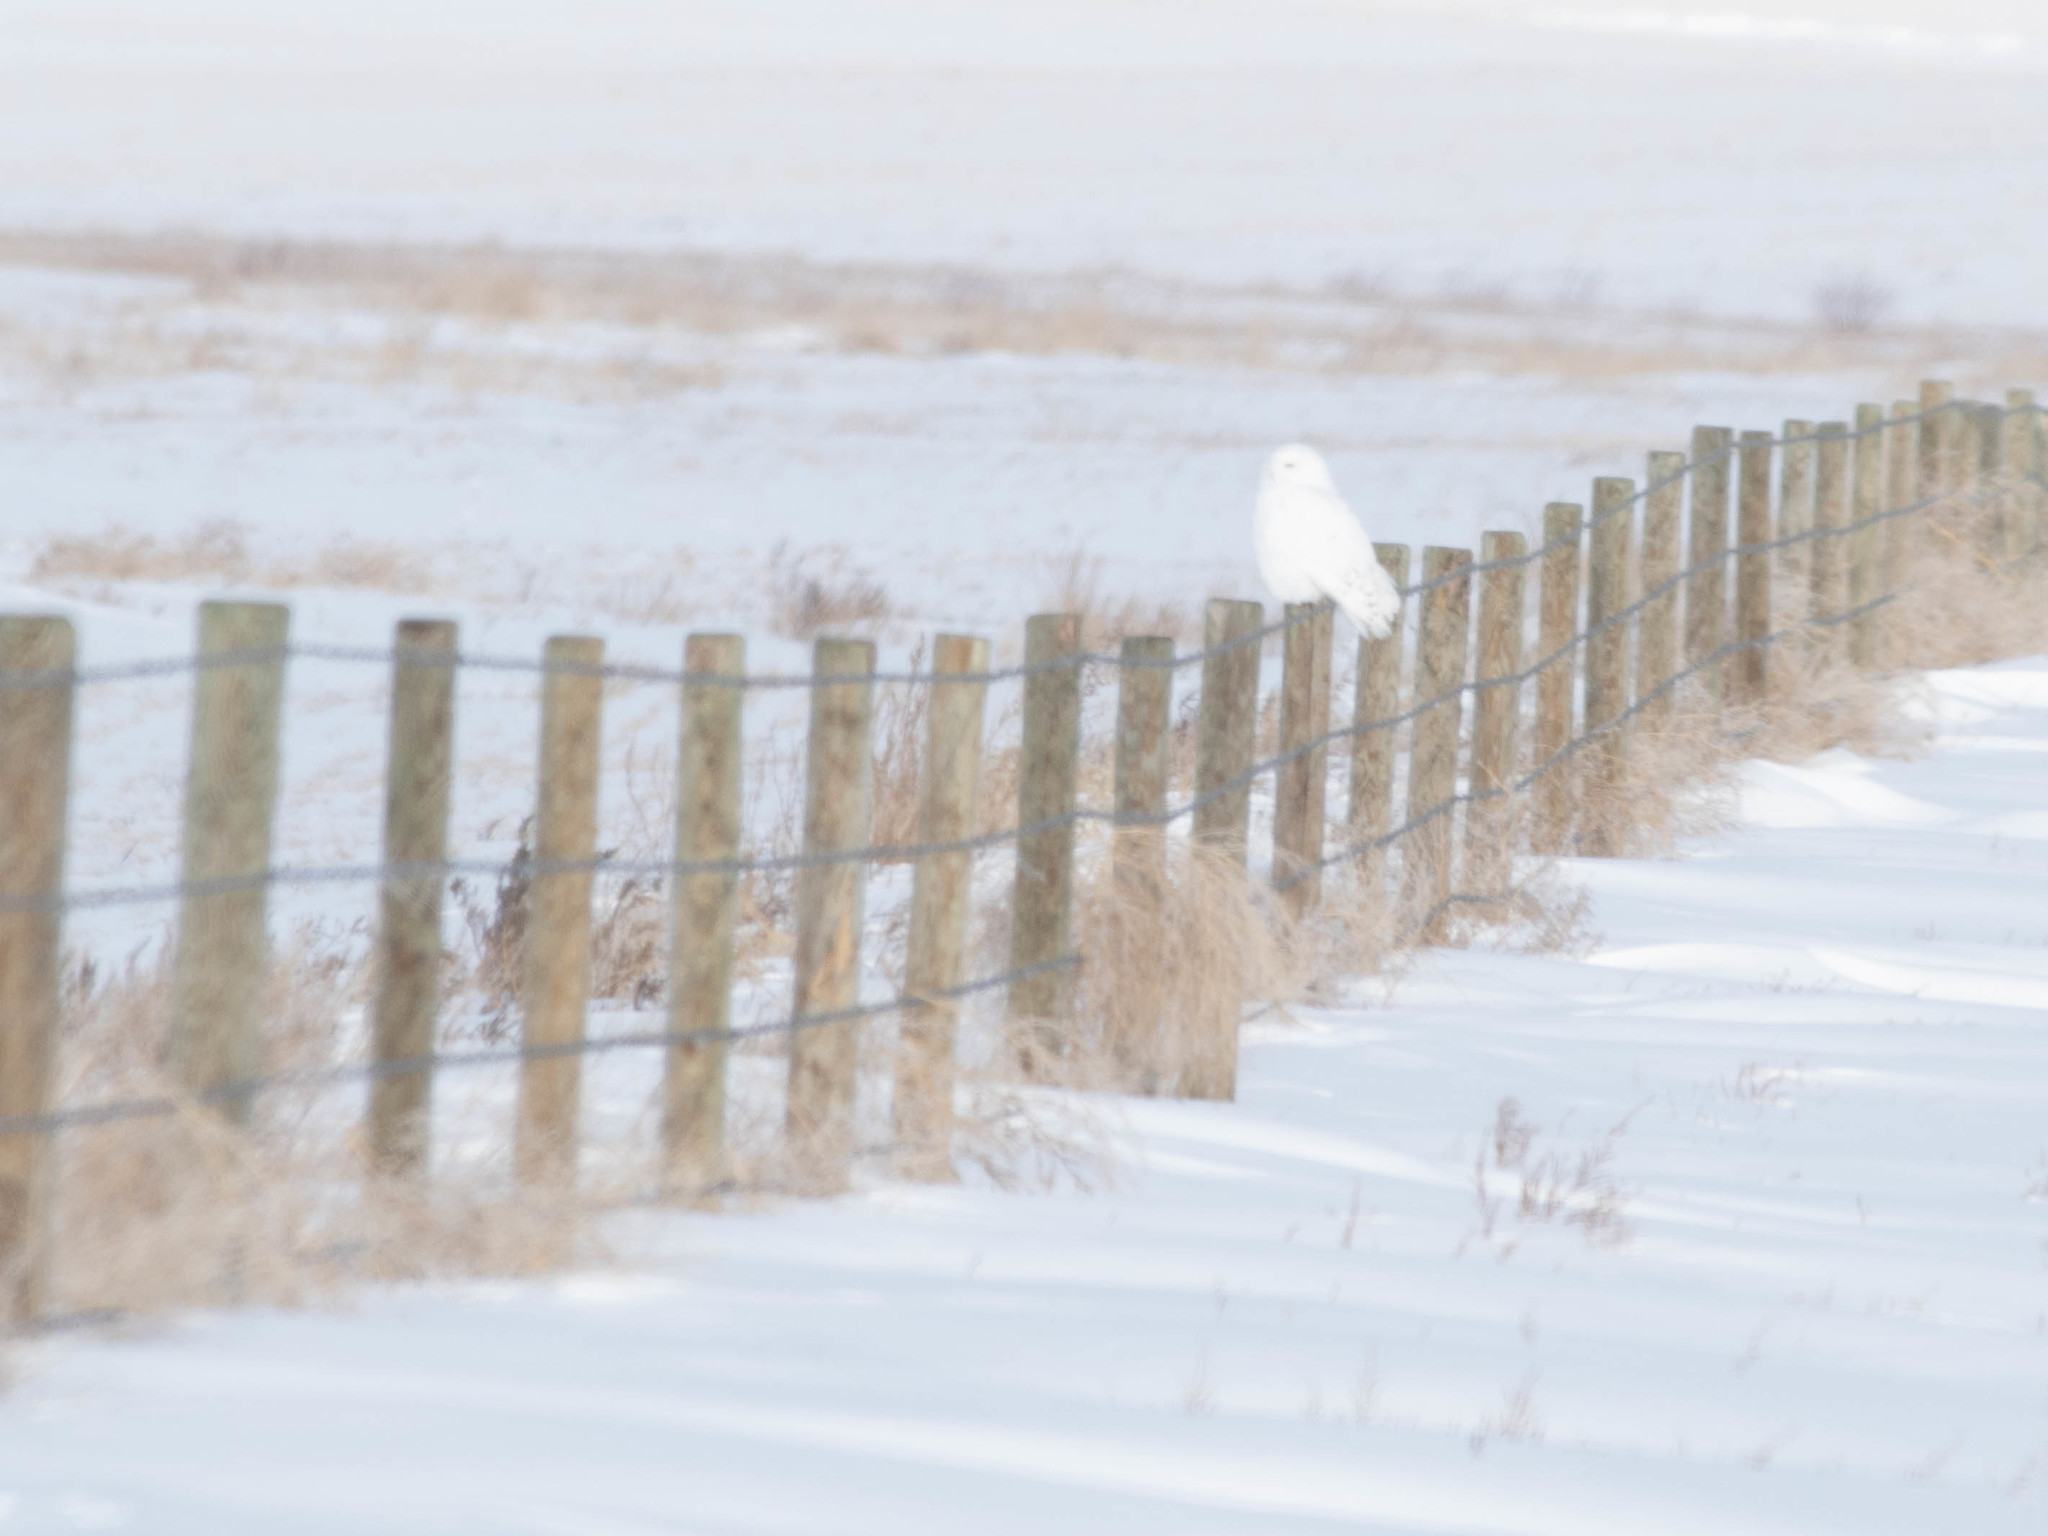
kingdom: Animalia
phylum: Chordata
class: Aves
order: Strigiformes
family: Strigidae
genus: Bubo
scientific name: Bubo scandiacus
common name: Snowy owl
